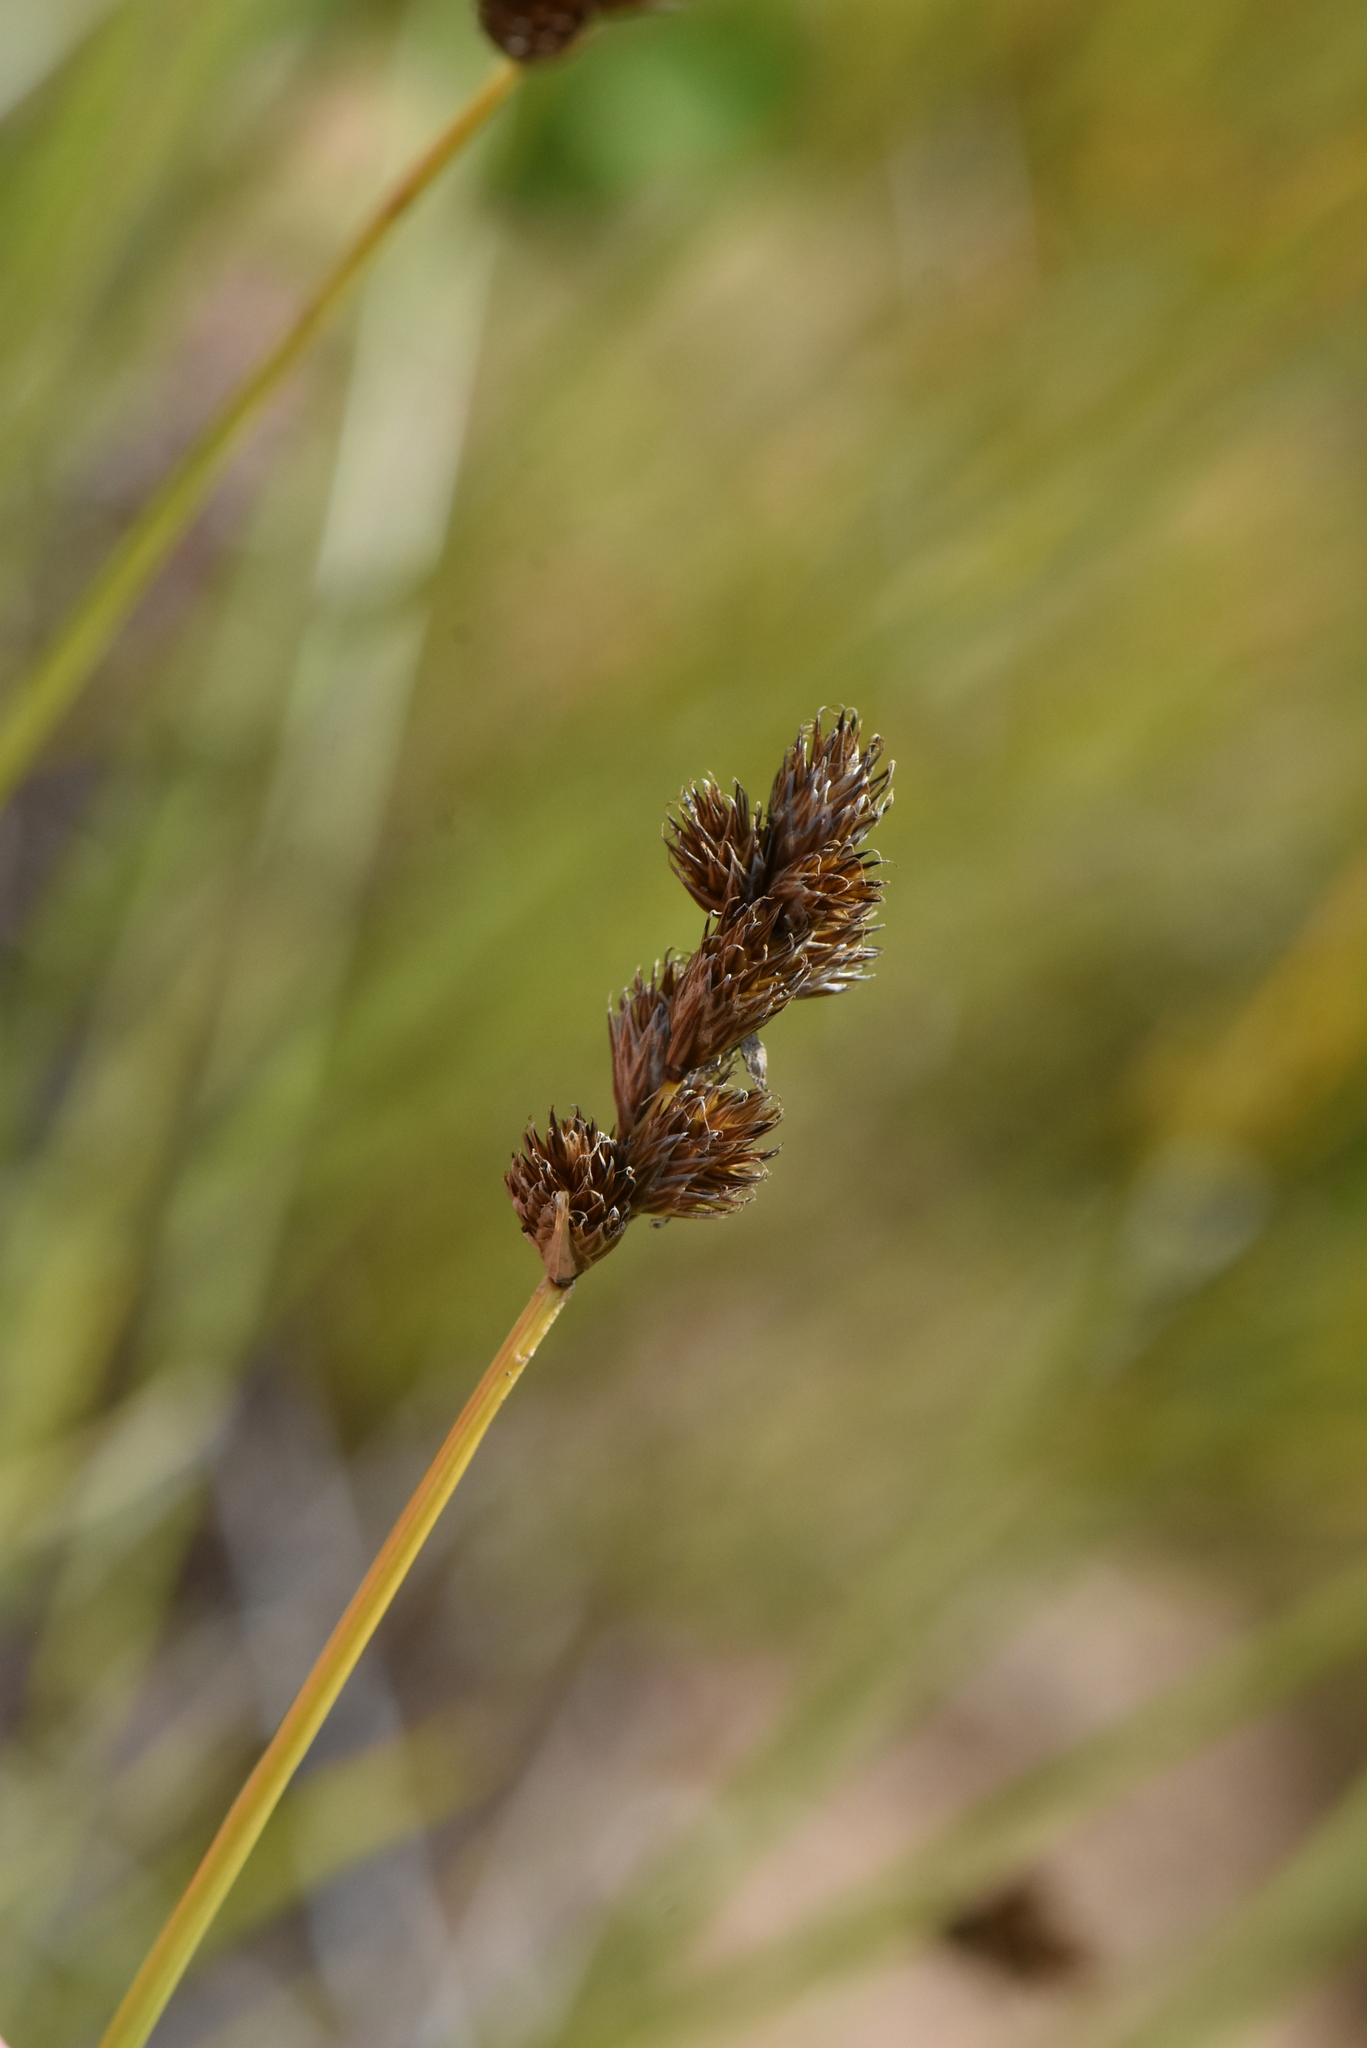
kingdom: Plantae
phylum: Tracheophyta
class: Liliopsida
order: Poales
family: Cyperaceae
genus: Carex
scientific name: Carex leporina
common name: Oval sedge
